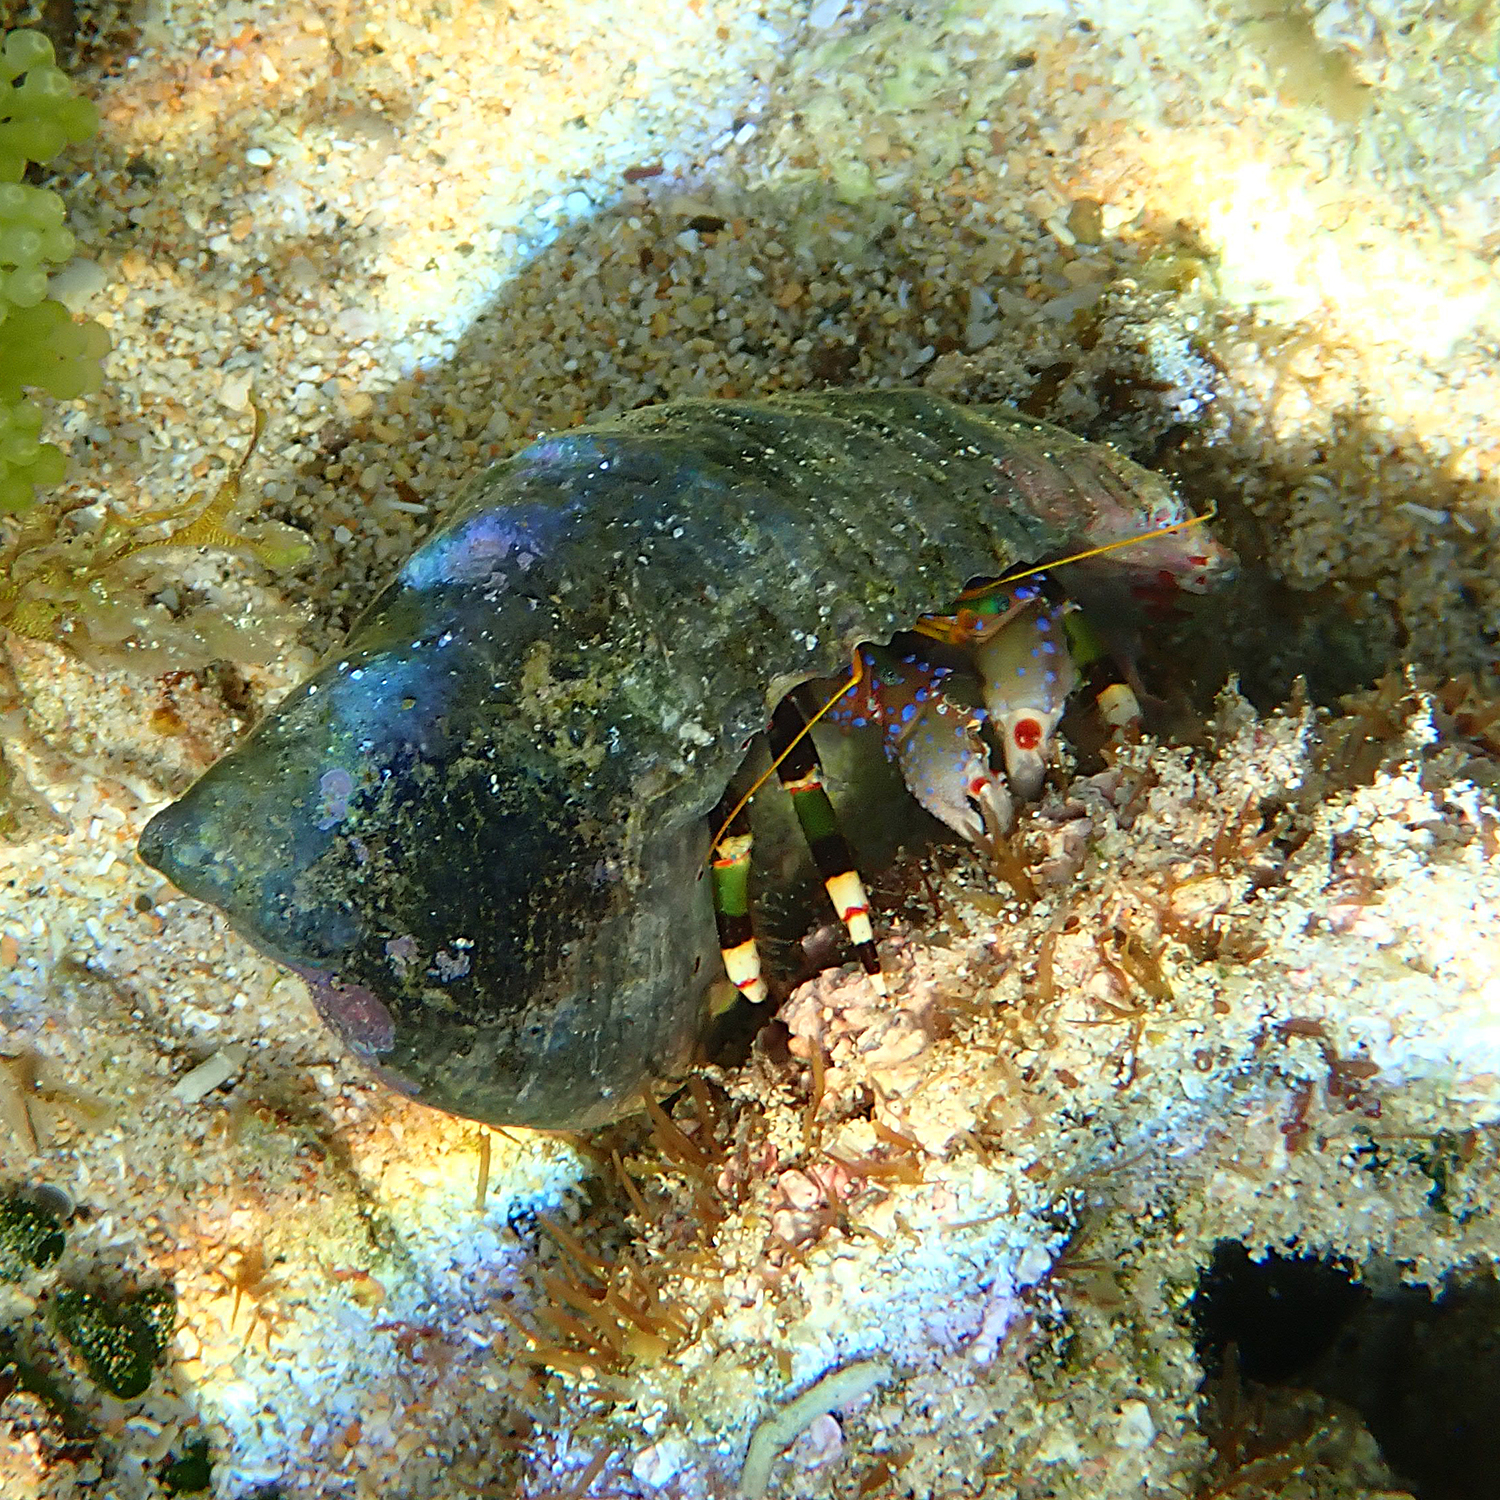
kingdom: Animalia
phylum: Arthropoda
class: Malacostraca
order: Decapoda
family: Diogenidae
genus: Calcinus
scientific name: Calcinus imperialis
